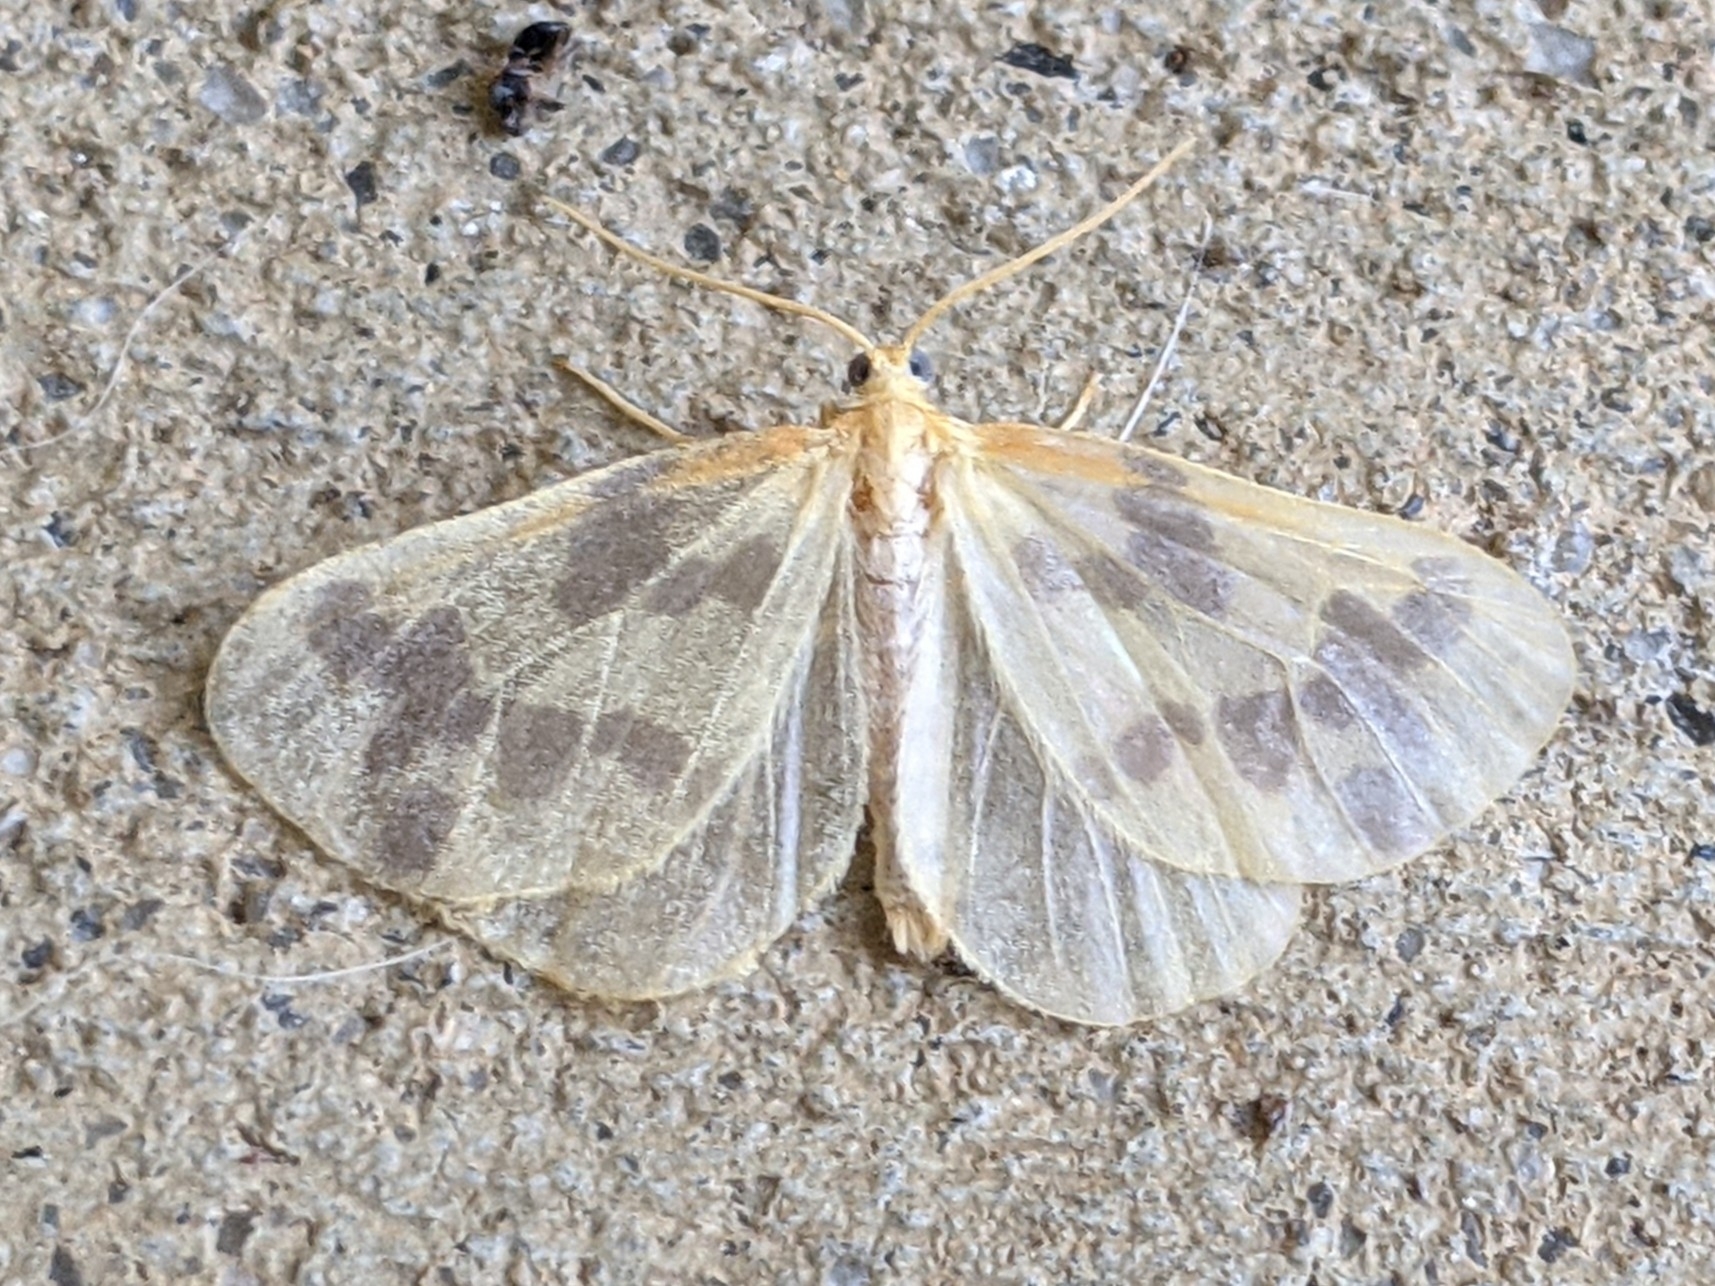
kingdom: Animalia
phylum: Arthropoda
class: Insecta
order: Lepidoptera
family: Geometridae
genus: Eubaphe
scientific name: Eubaphe mendica
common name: Beggar
